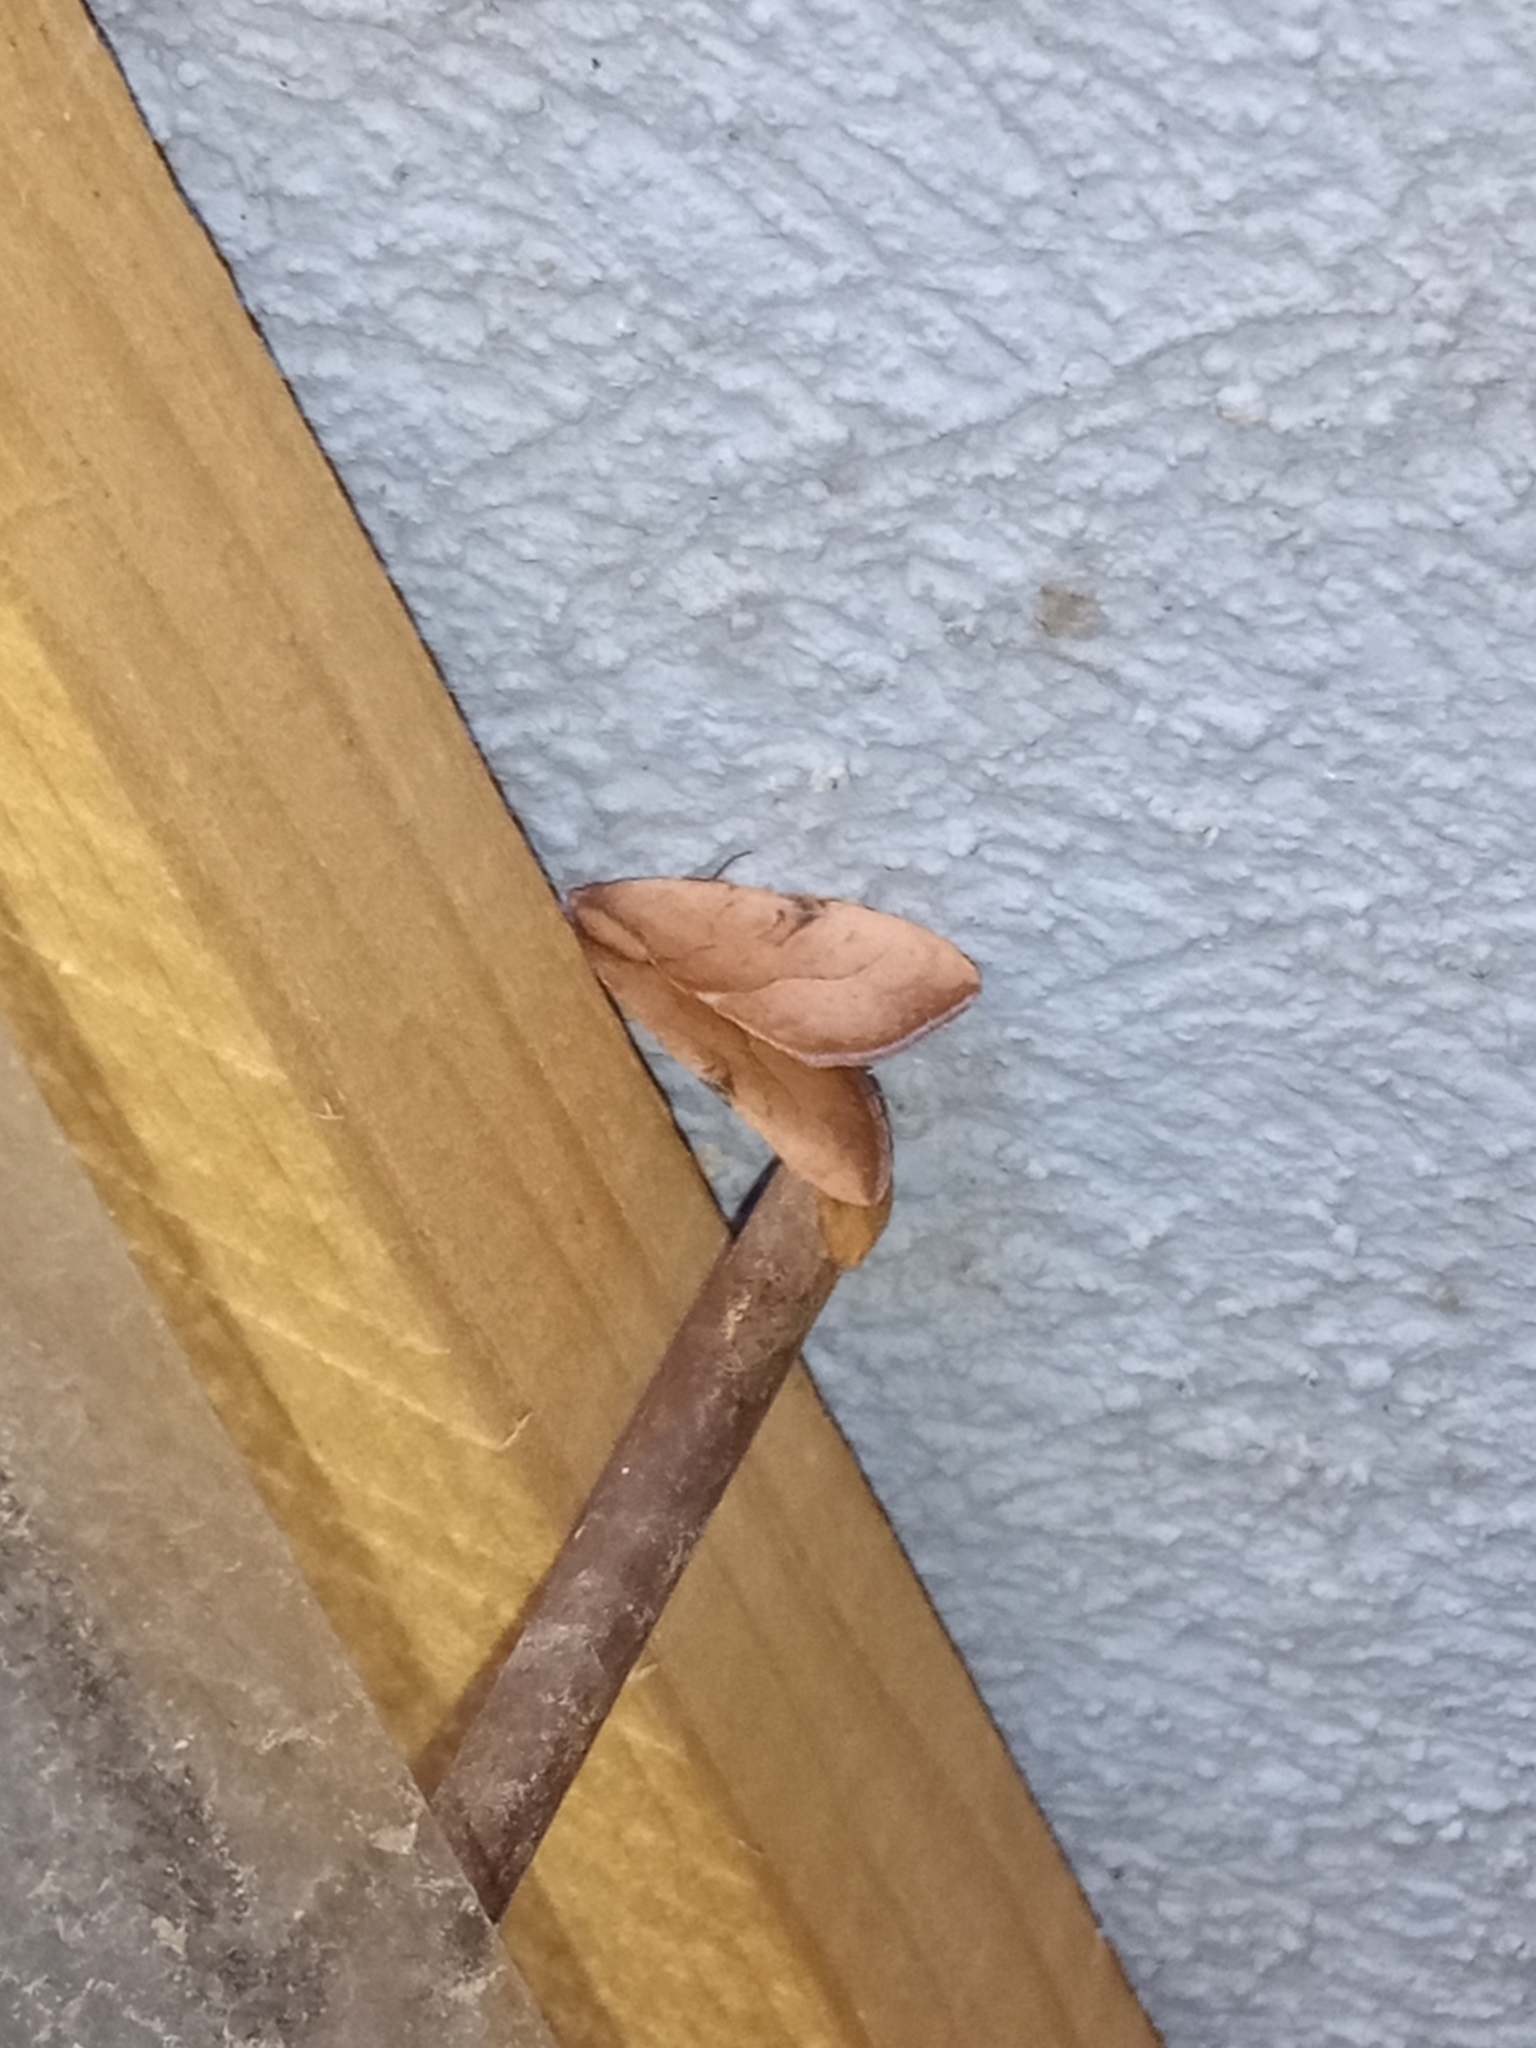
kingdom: Animalia
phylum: Arthropoda
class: Insecta
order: Lepidoptera
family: Noctuidae
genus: Galgula
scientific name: Galgula partita
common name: Wedgeling
